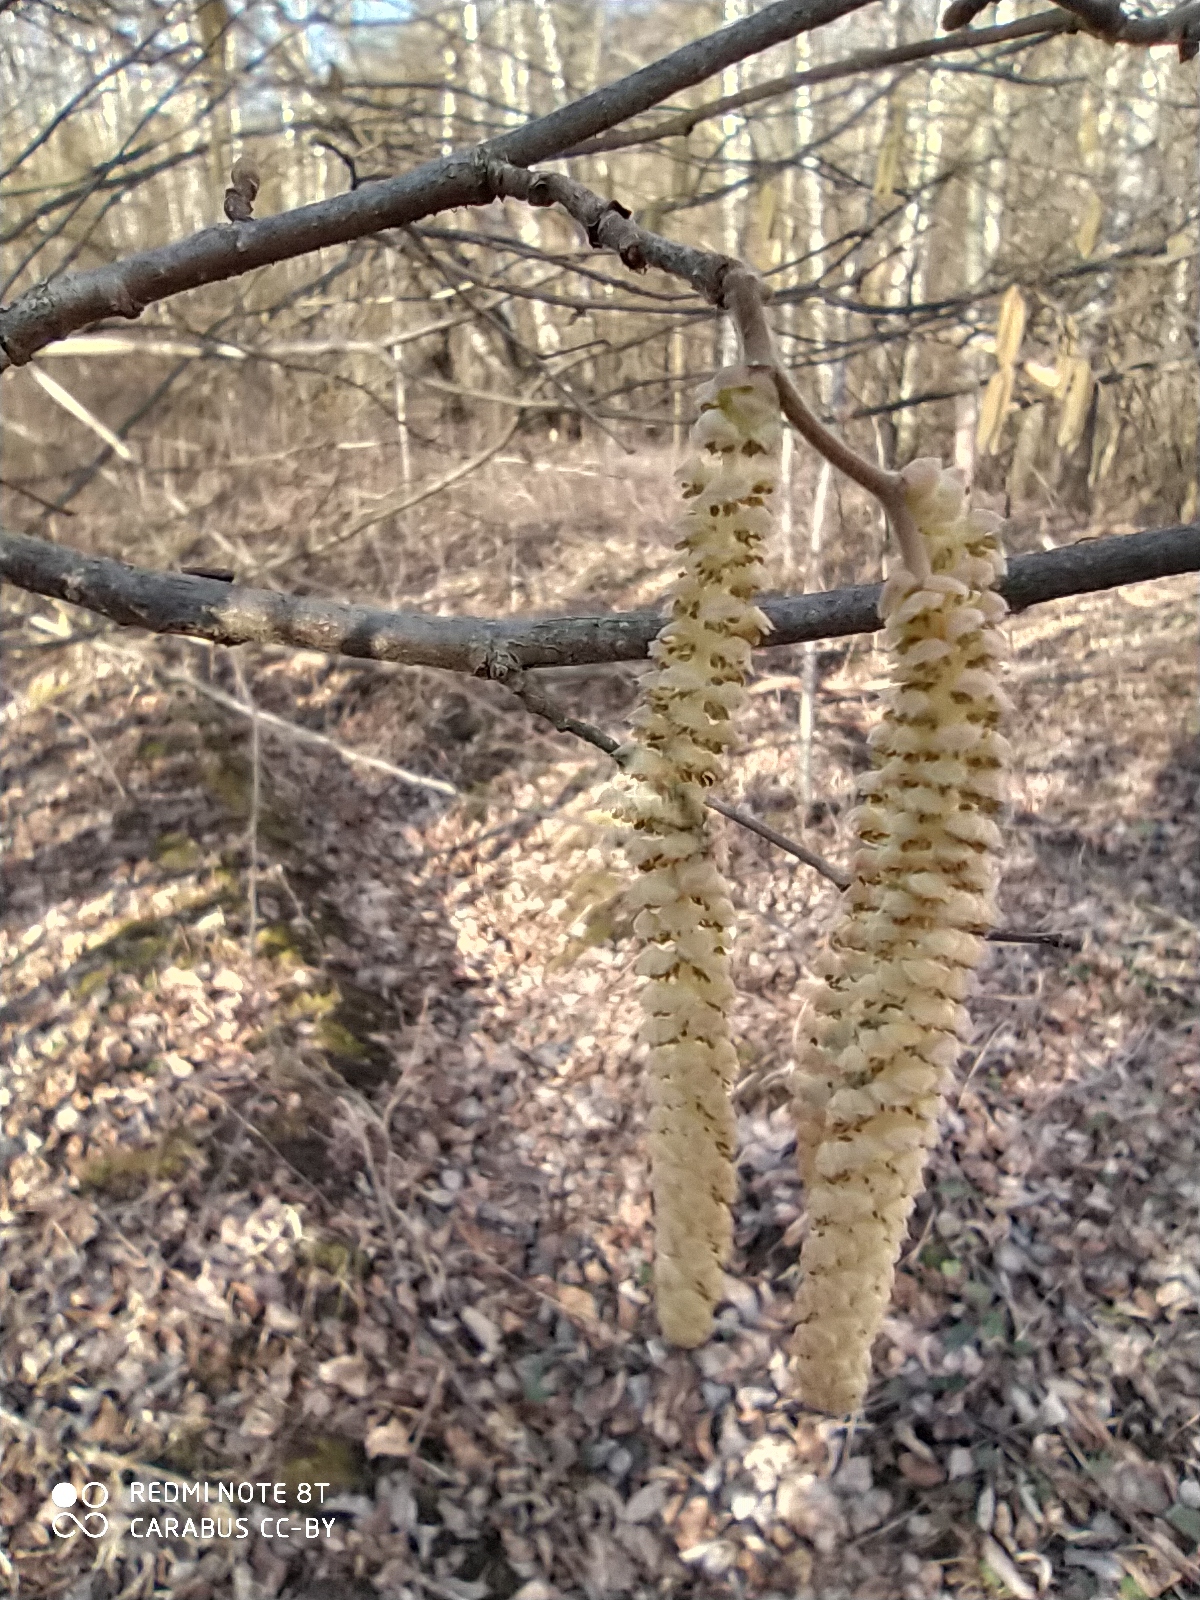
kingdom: Plantae
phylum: Tracheophyta
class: Magnoliopsida
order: Fagales
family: Betulaceae
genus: Corylus
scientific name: Corylus avellana
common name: European hazel
